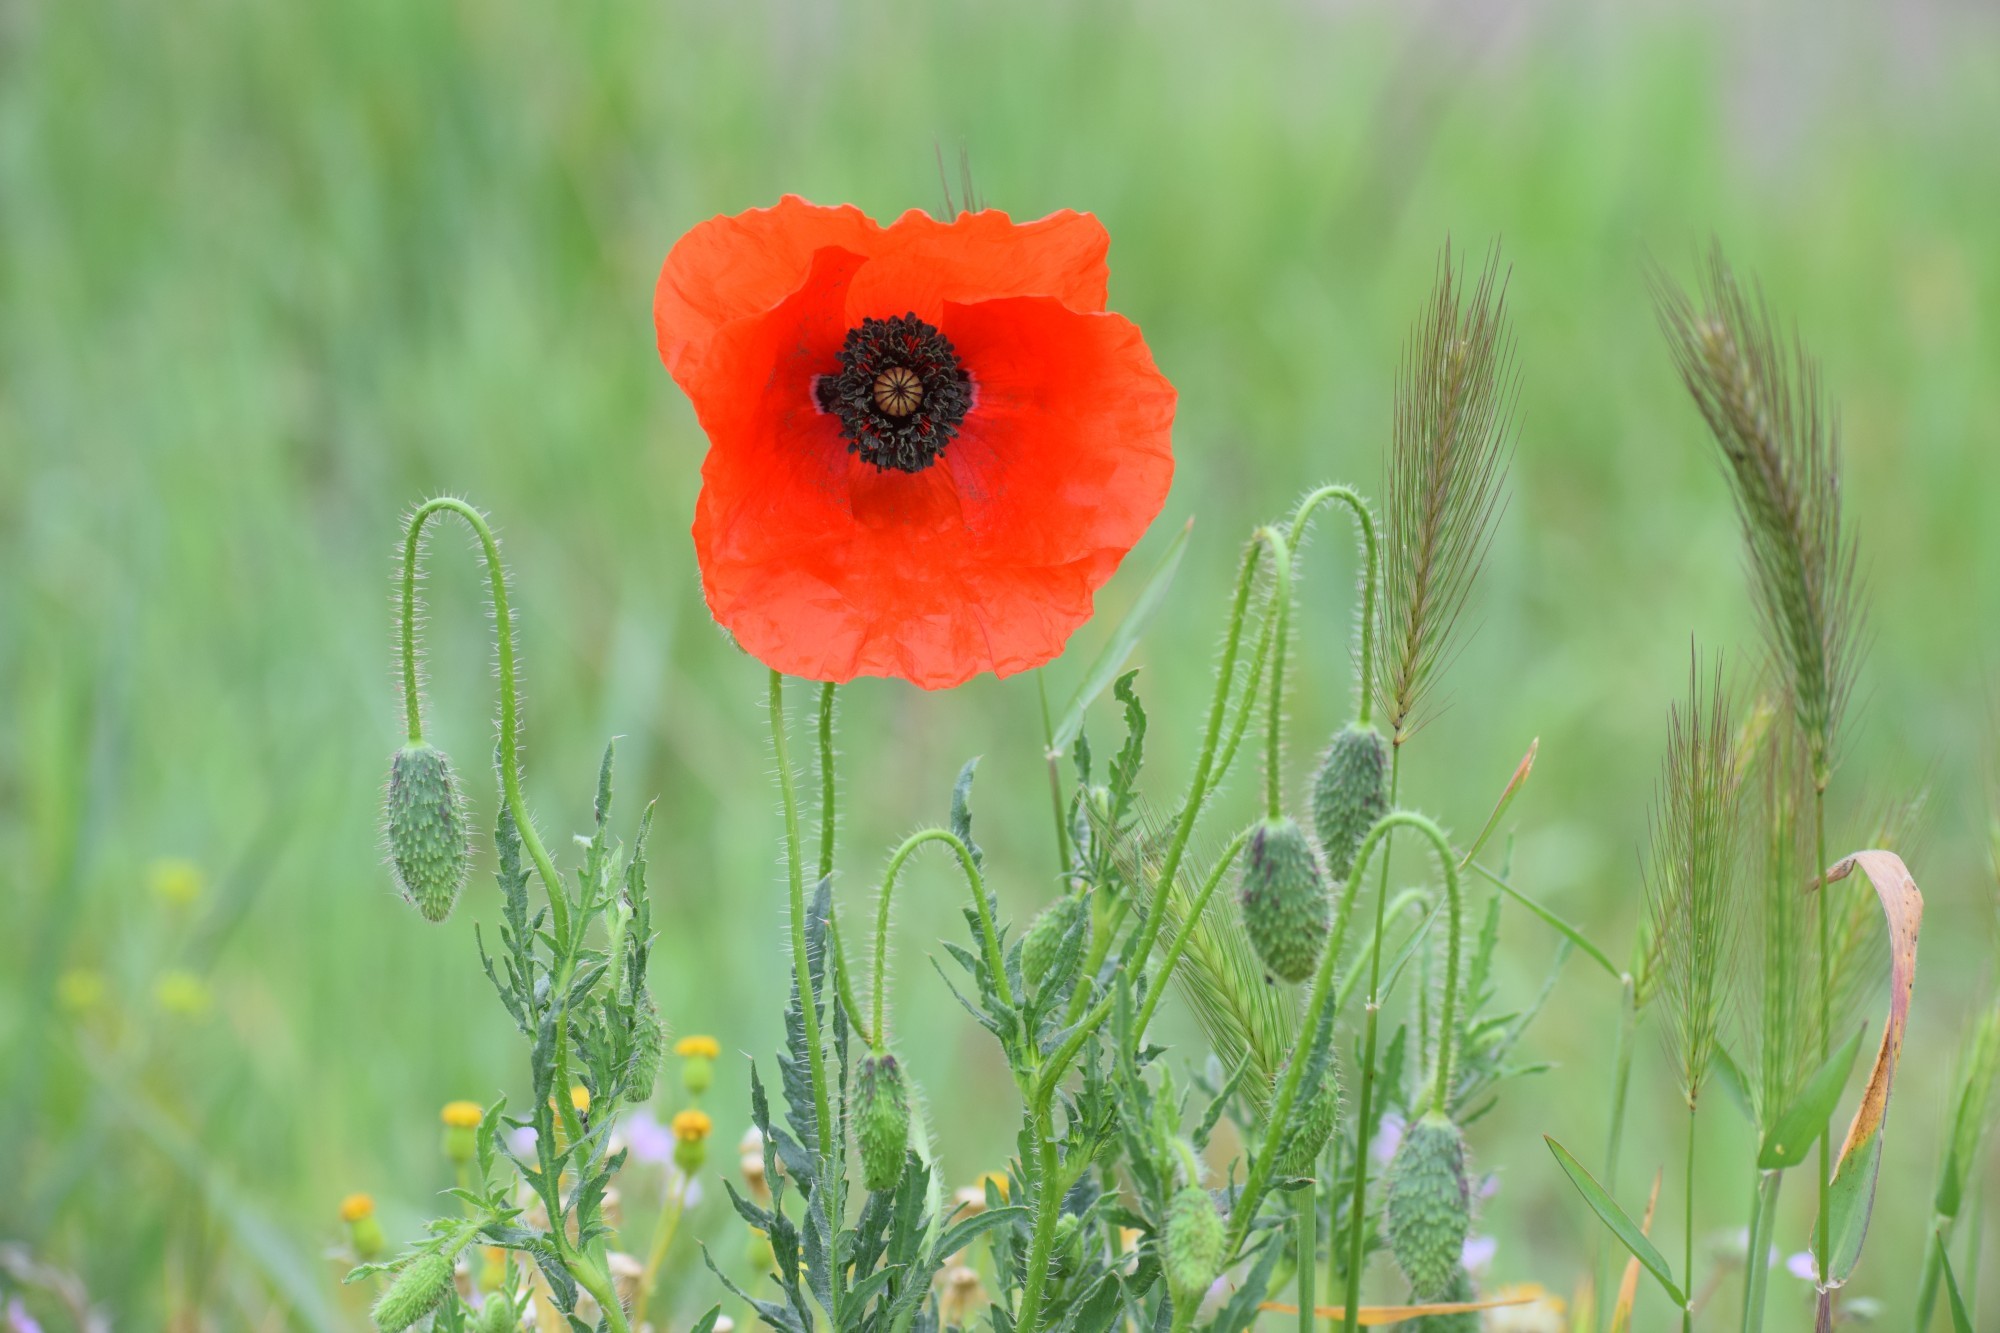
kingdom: Plantae
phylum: Tracheophyta
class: Magnoliopsida
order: Ranunculales
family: Papaveraceae
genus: Papaver
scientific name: Papaver rhoeas
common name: Corn poppy
